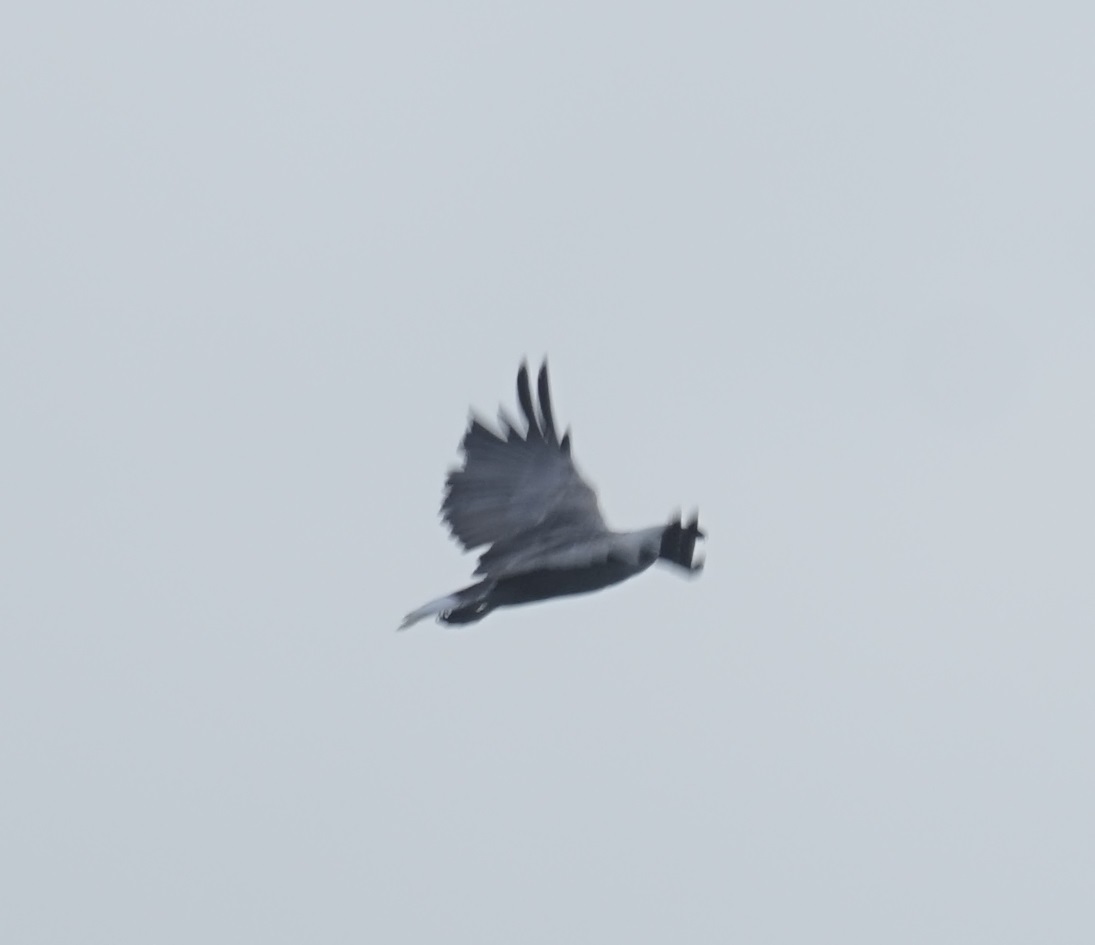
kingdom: Animalia
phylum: Chordata
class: Aves
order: Accipitriformes
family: Accipitridae
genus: Haliaeetus
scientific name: Haliaeetus leucogaster
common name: White-bellied sea eagle
